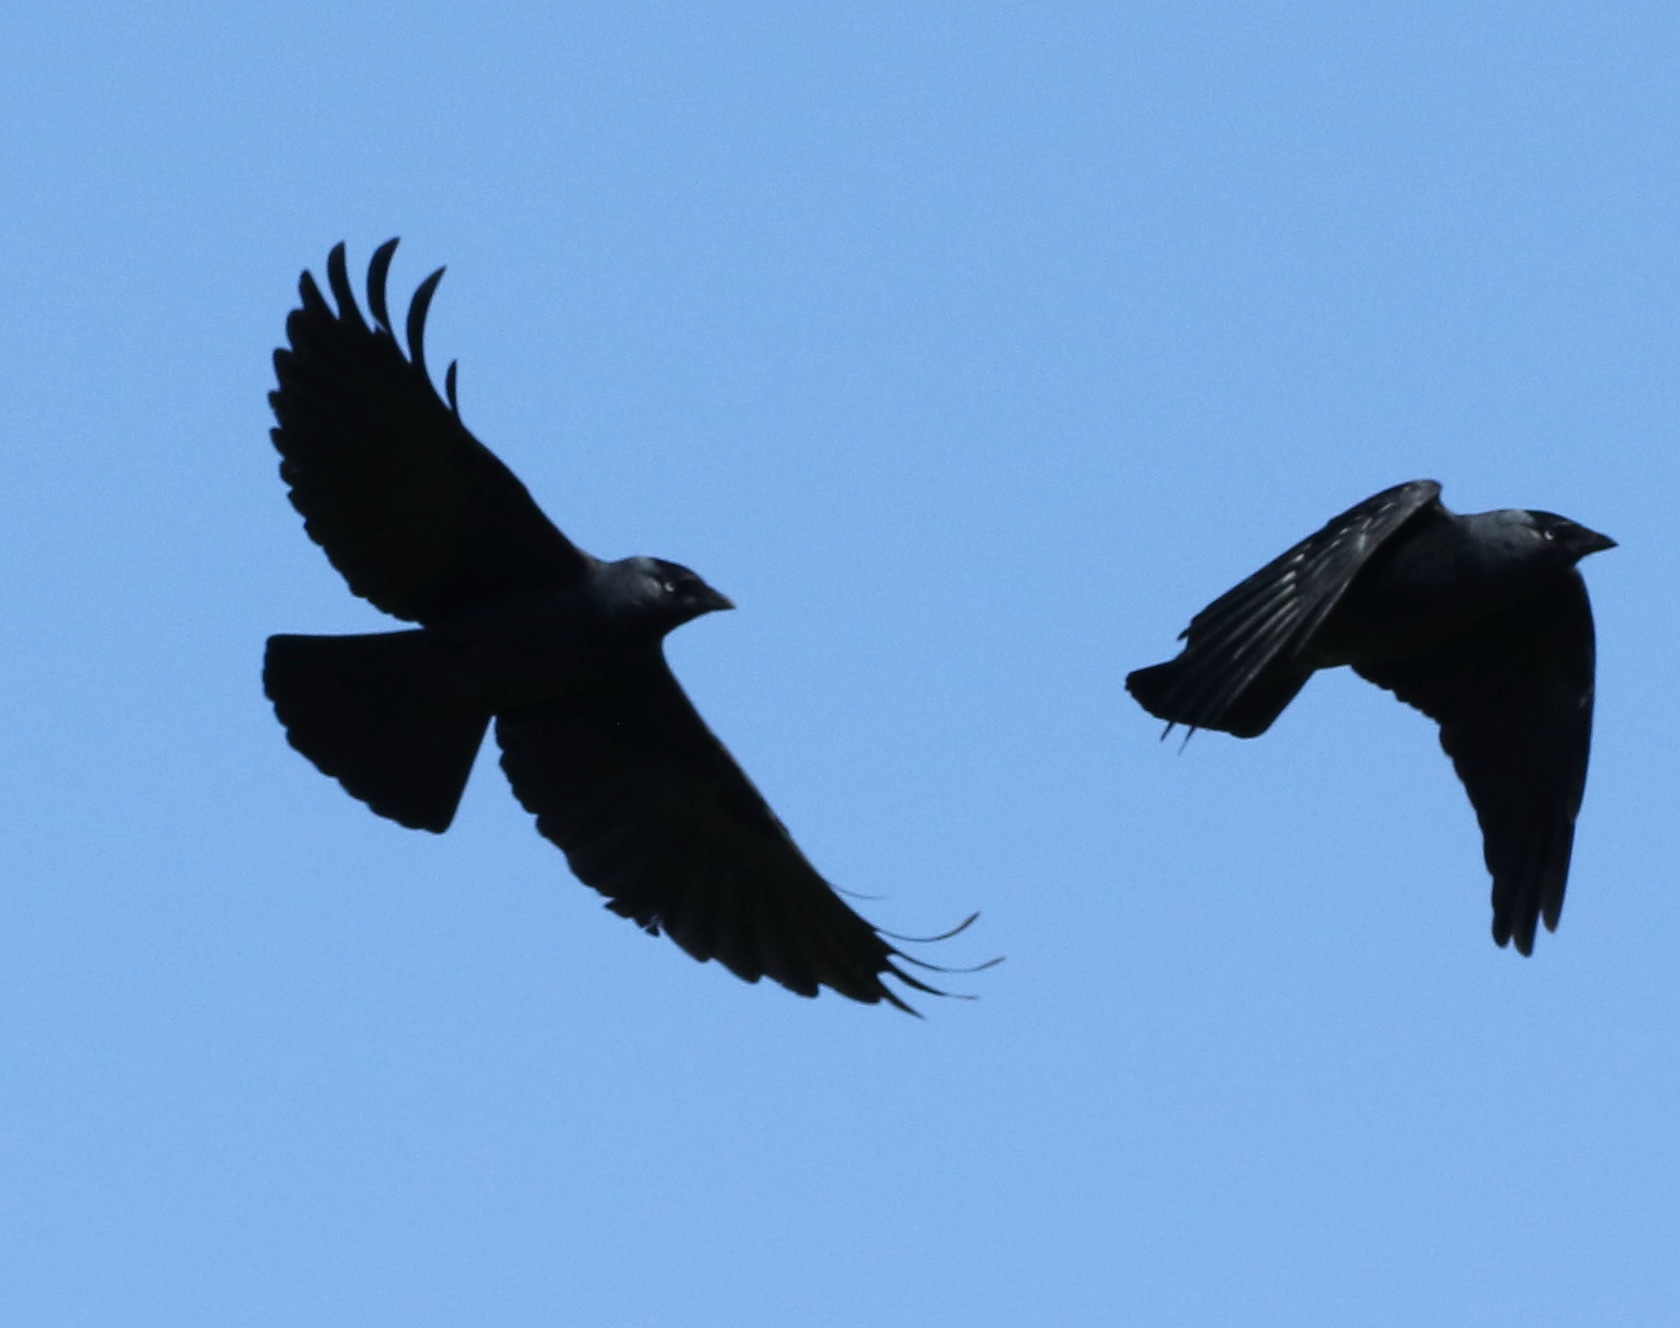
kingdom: Animalia
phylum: Chordata
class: Aves
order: Passeriformes
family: Corvidae
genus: Coloeus
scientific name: Coloeus monedula
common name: Western jackdaw
